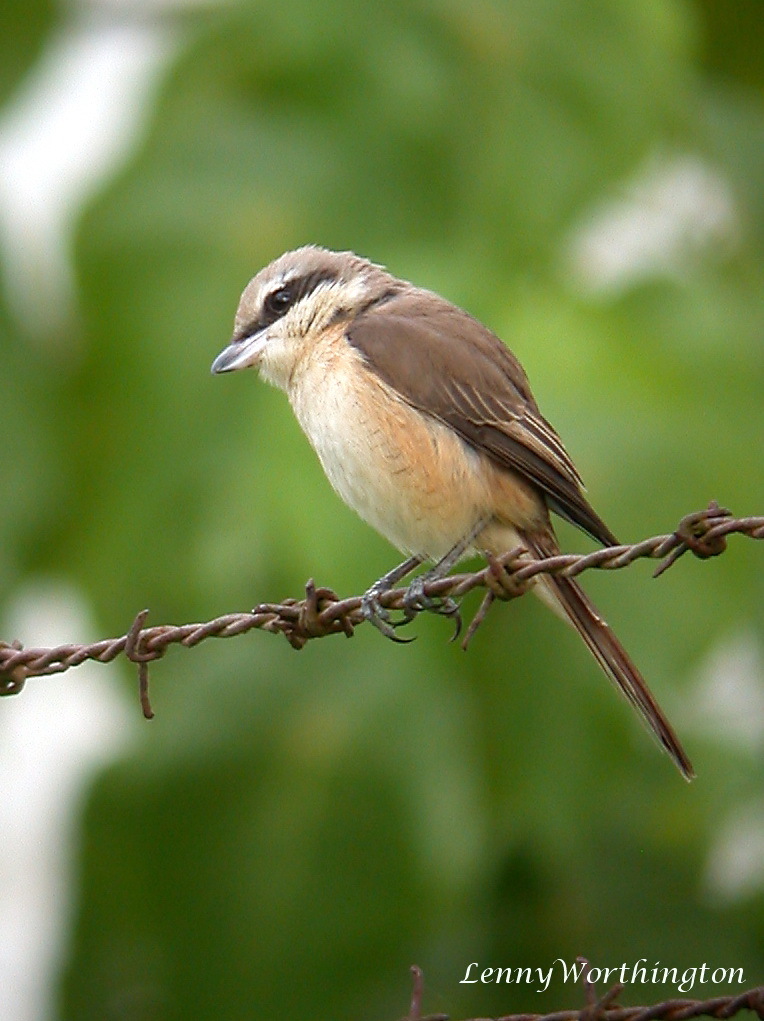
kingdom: Animalia
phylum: Chordata
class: Aves
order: Passeriformes
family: Laniidae
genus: Lanius
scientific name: Lanius cristatus
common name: Brown shrike
